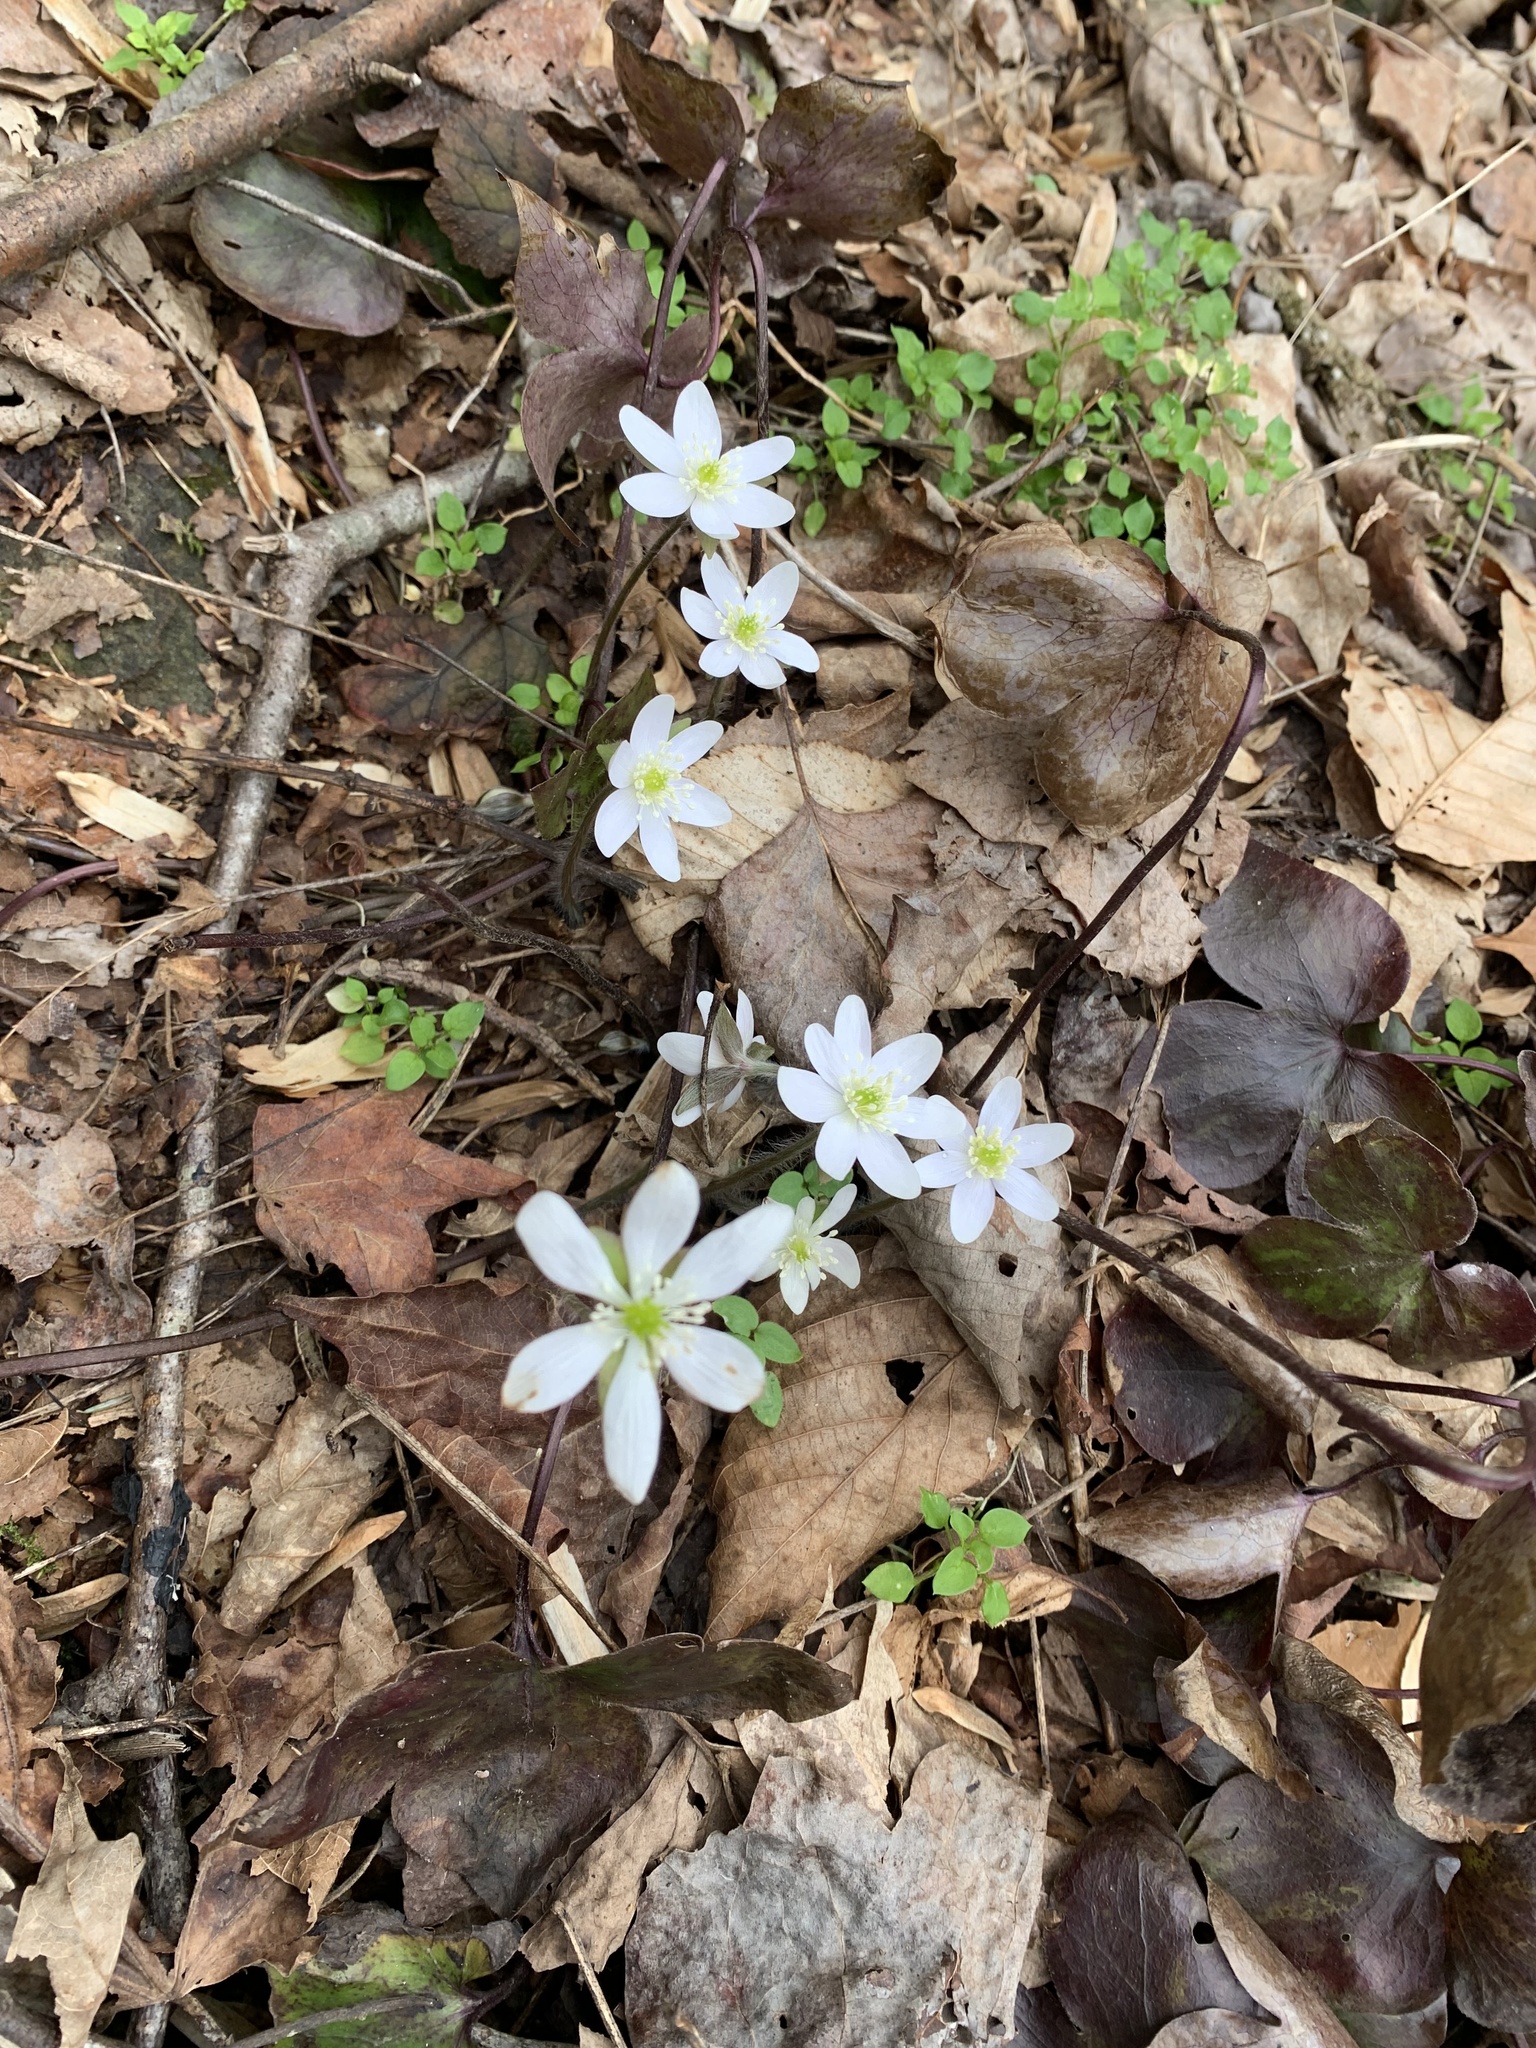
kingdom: Plantae
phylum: Tracheophyta
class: Magnoliopsida
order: Ranunculales
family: Ranunculaceae
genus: Hepatica
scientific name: Hepatica acutiloba
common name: Sharp-lobed hepatica
